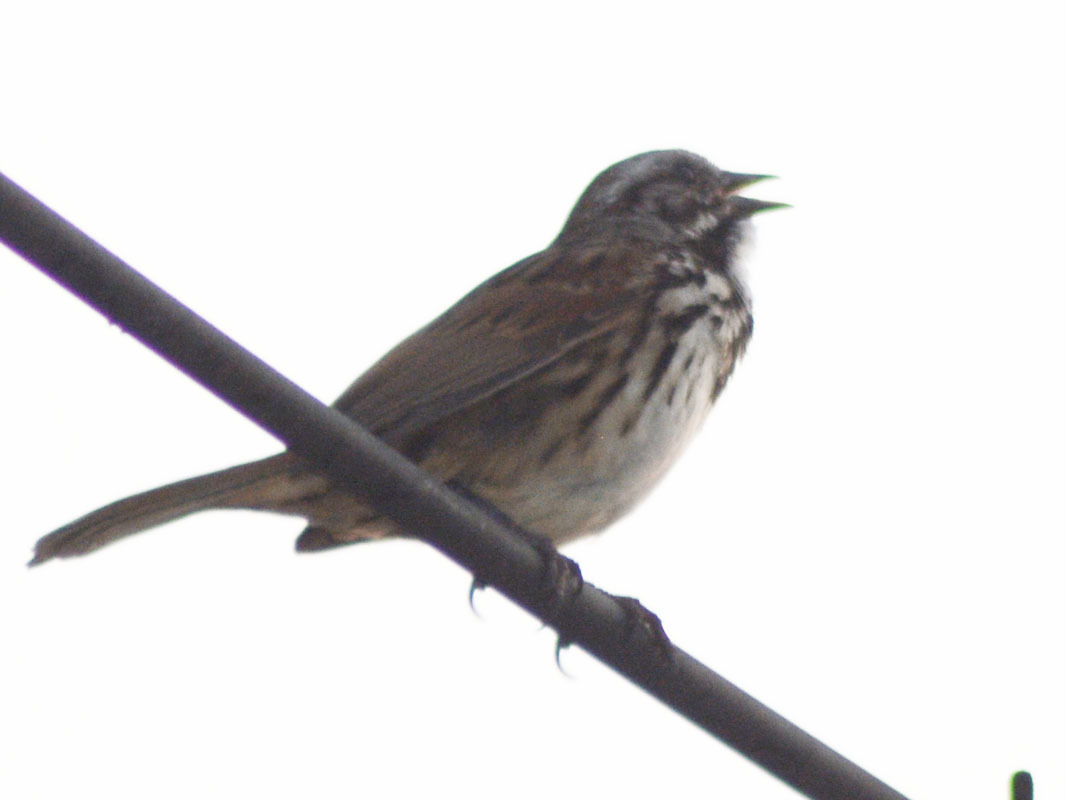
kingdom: Animalia
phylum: Chordata
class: Aves
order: Passeriformes
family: Passerellidae
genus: Melospiza
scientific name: Melospiza melodia
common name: Song sparrow
